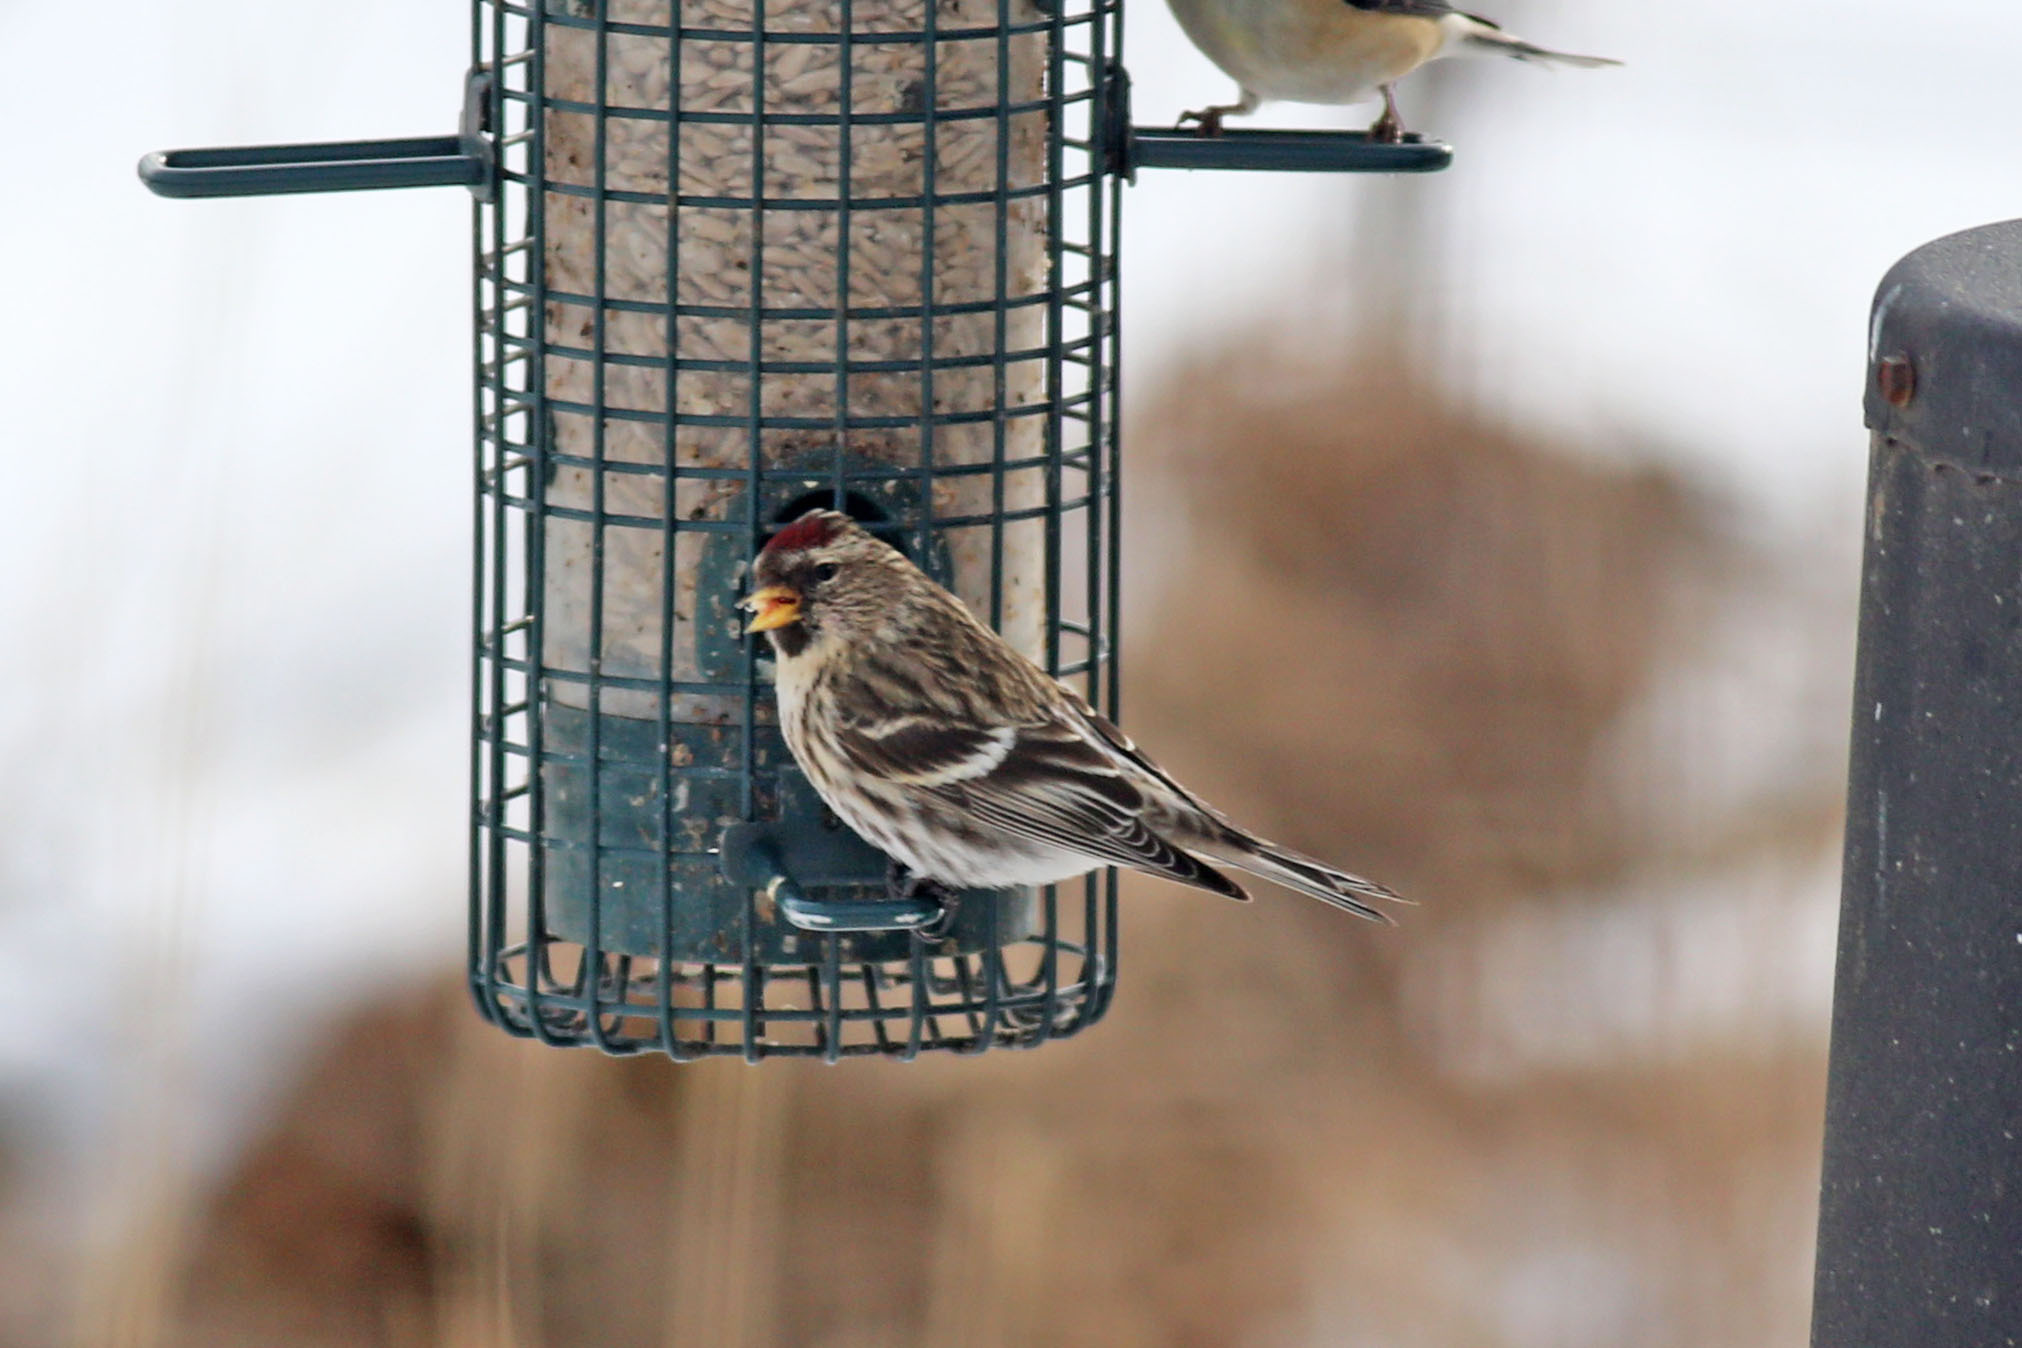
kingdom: Animalia
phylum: Chordata
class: Aves
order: Passeriformes
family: Fringillidae
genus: Acanthis
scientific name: Acanthis flammea
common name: Common redpoll
